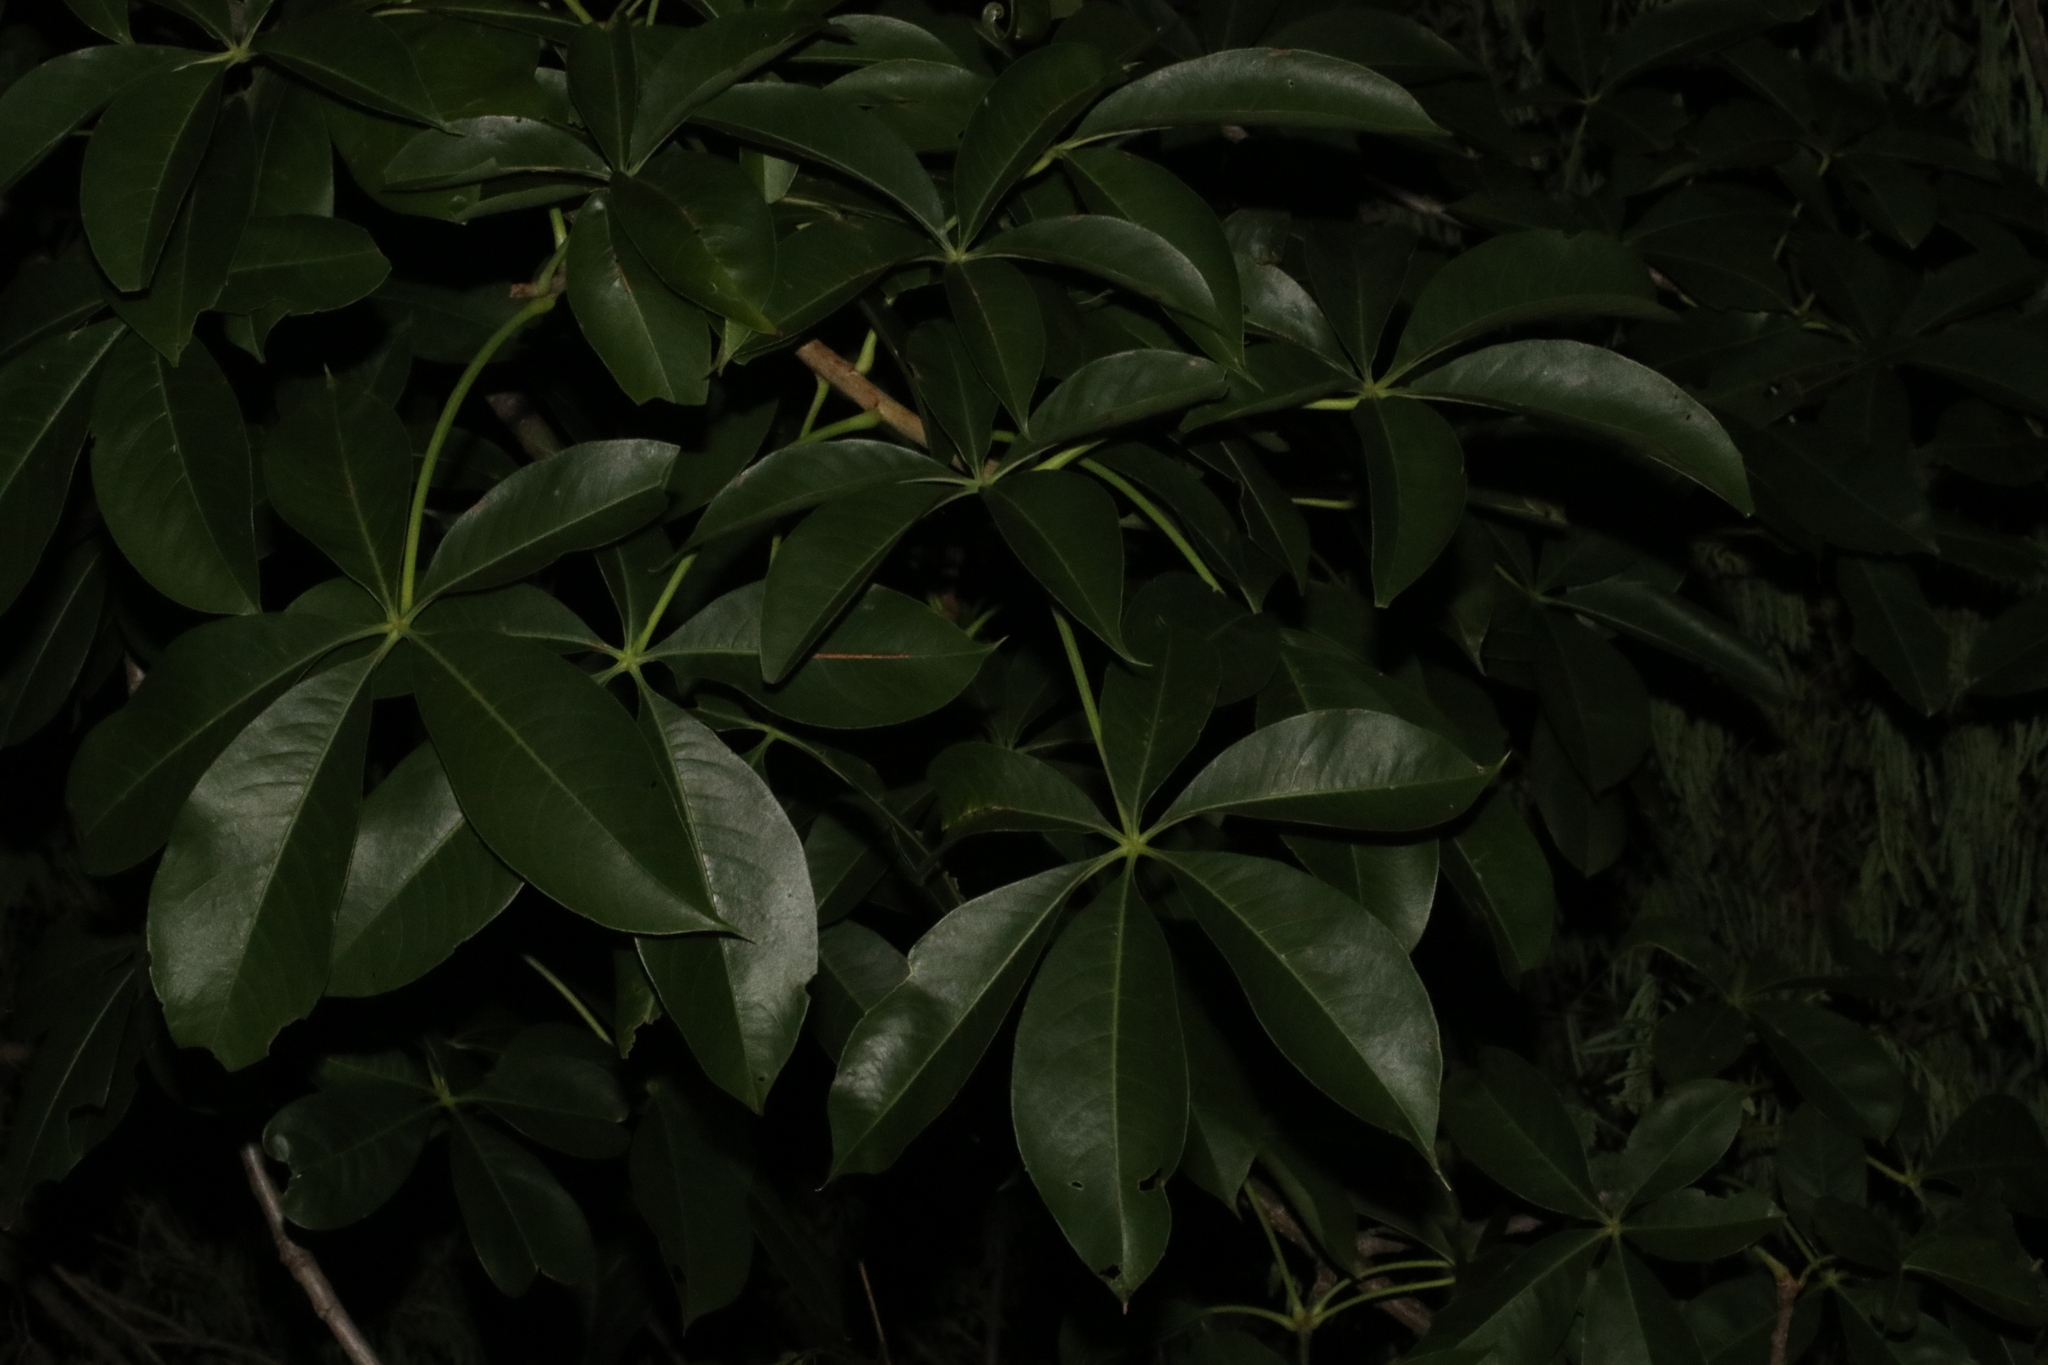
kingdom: Plantae
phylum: Tracheophyta
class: Magnoliopsida
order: Malvales
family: Malvaceae
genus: Adansonia
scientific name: Adansonia digitata
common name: Dead-rat-tree
